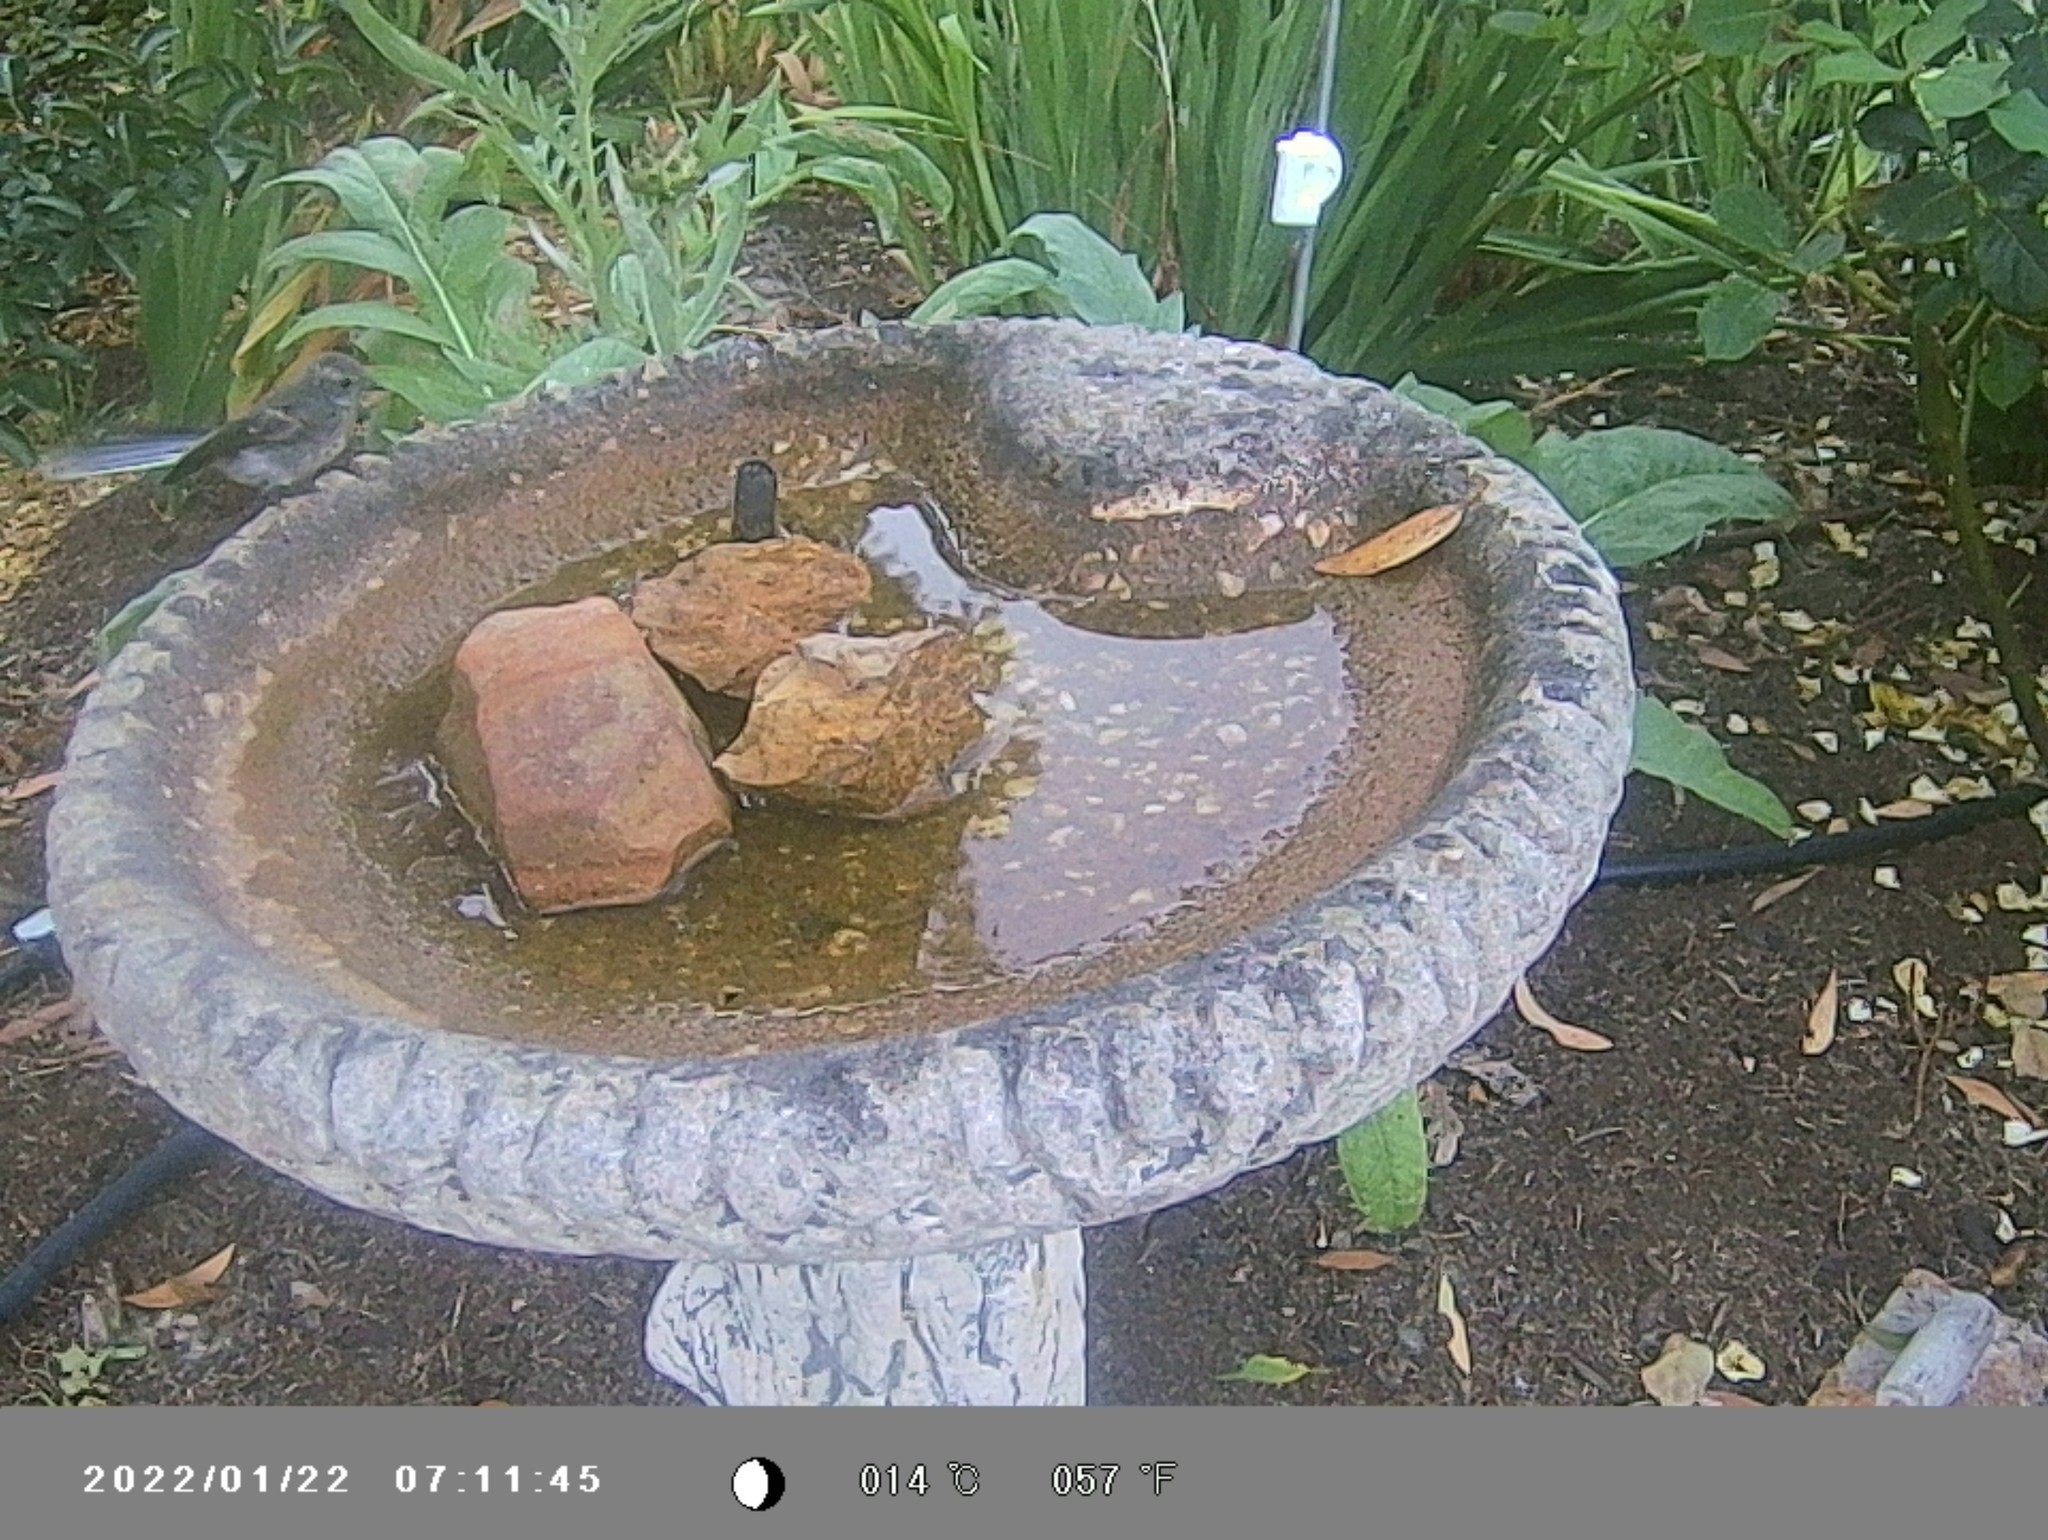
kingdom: Animalia
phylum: Chordata
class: Aves
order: Passeriformes
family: Rhipiduridae
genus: Rhipidura
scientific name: Rhipidura albiscapa
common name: Grey fantail
